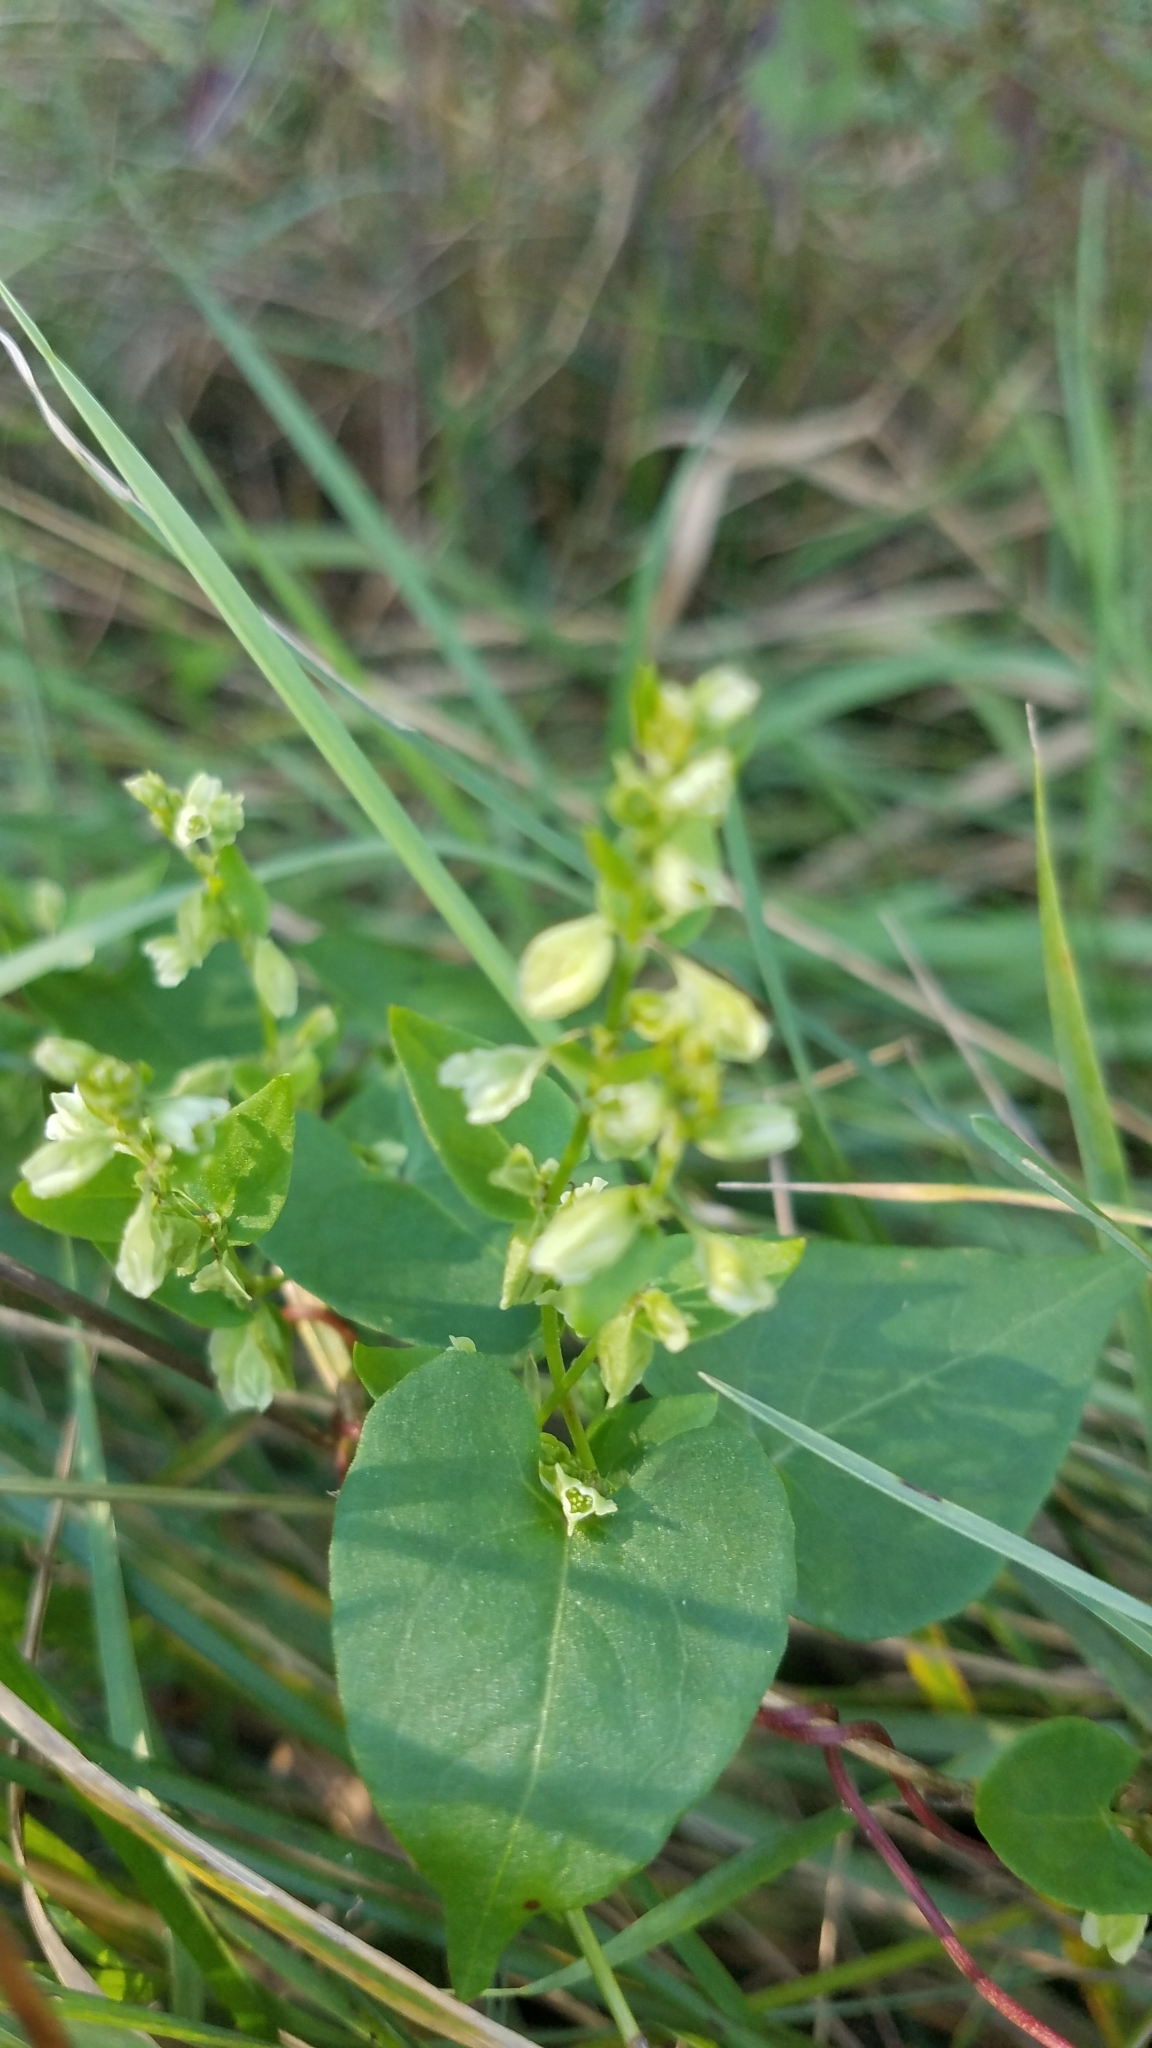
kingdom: Plantae
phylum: Tracheophyta
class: Magnoliopsida
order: Caryophyllales
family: Polygonaceae
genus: Fallopia
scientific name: Fallopia scandens
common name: Climbing false buckwheat
